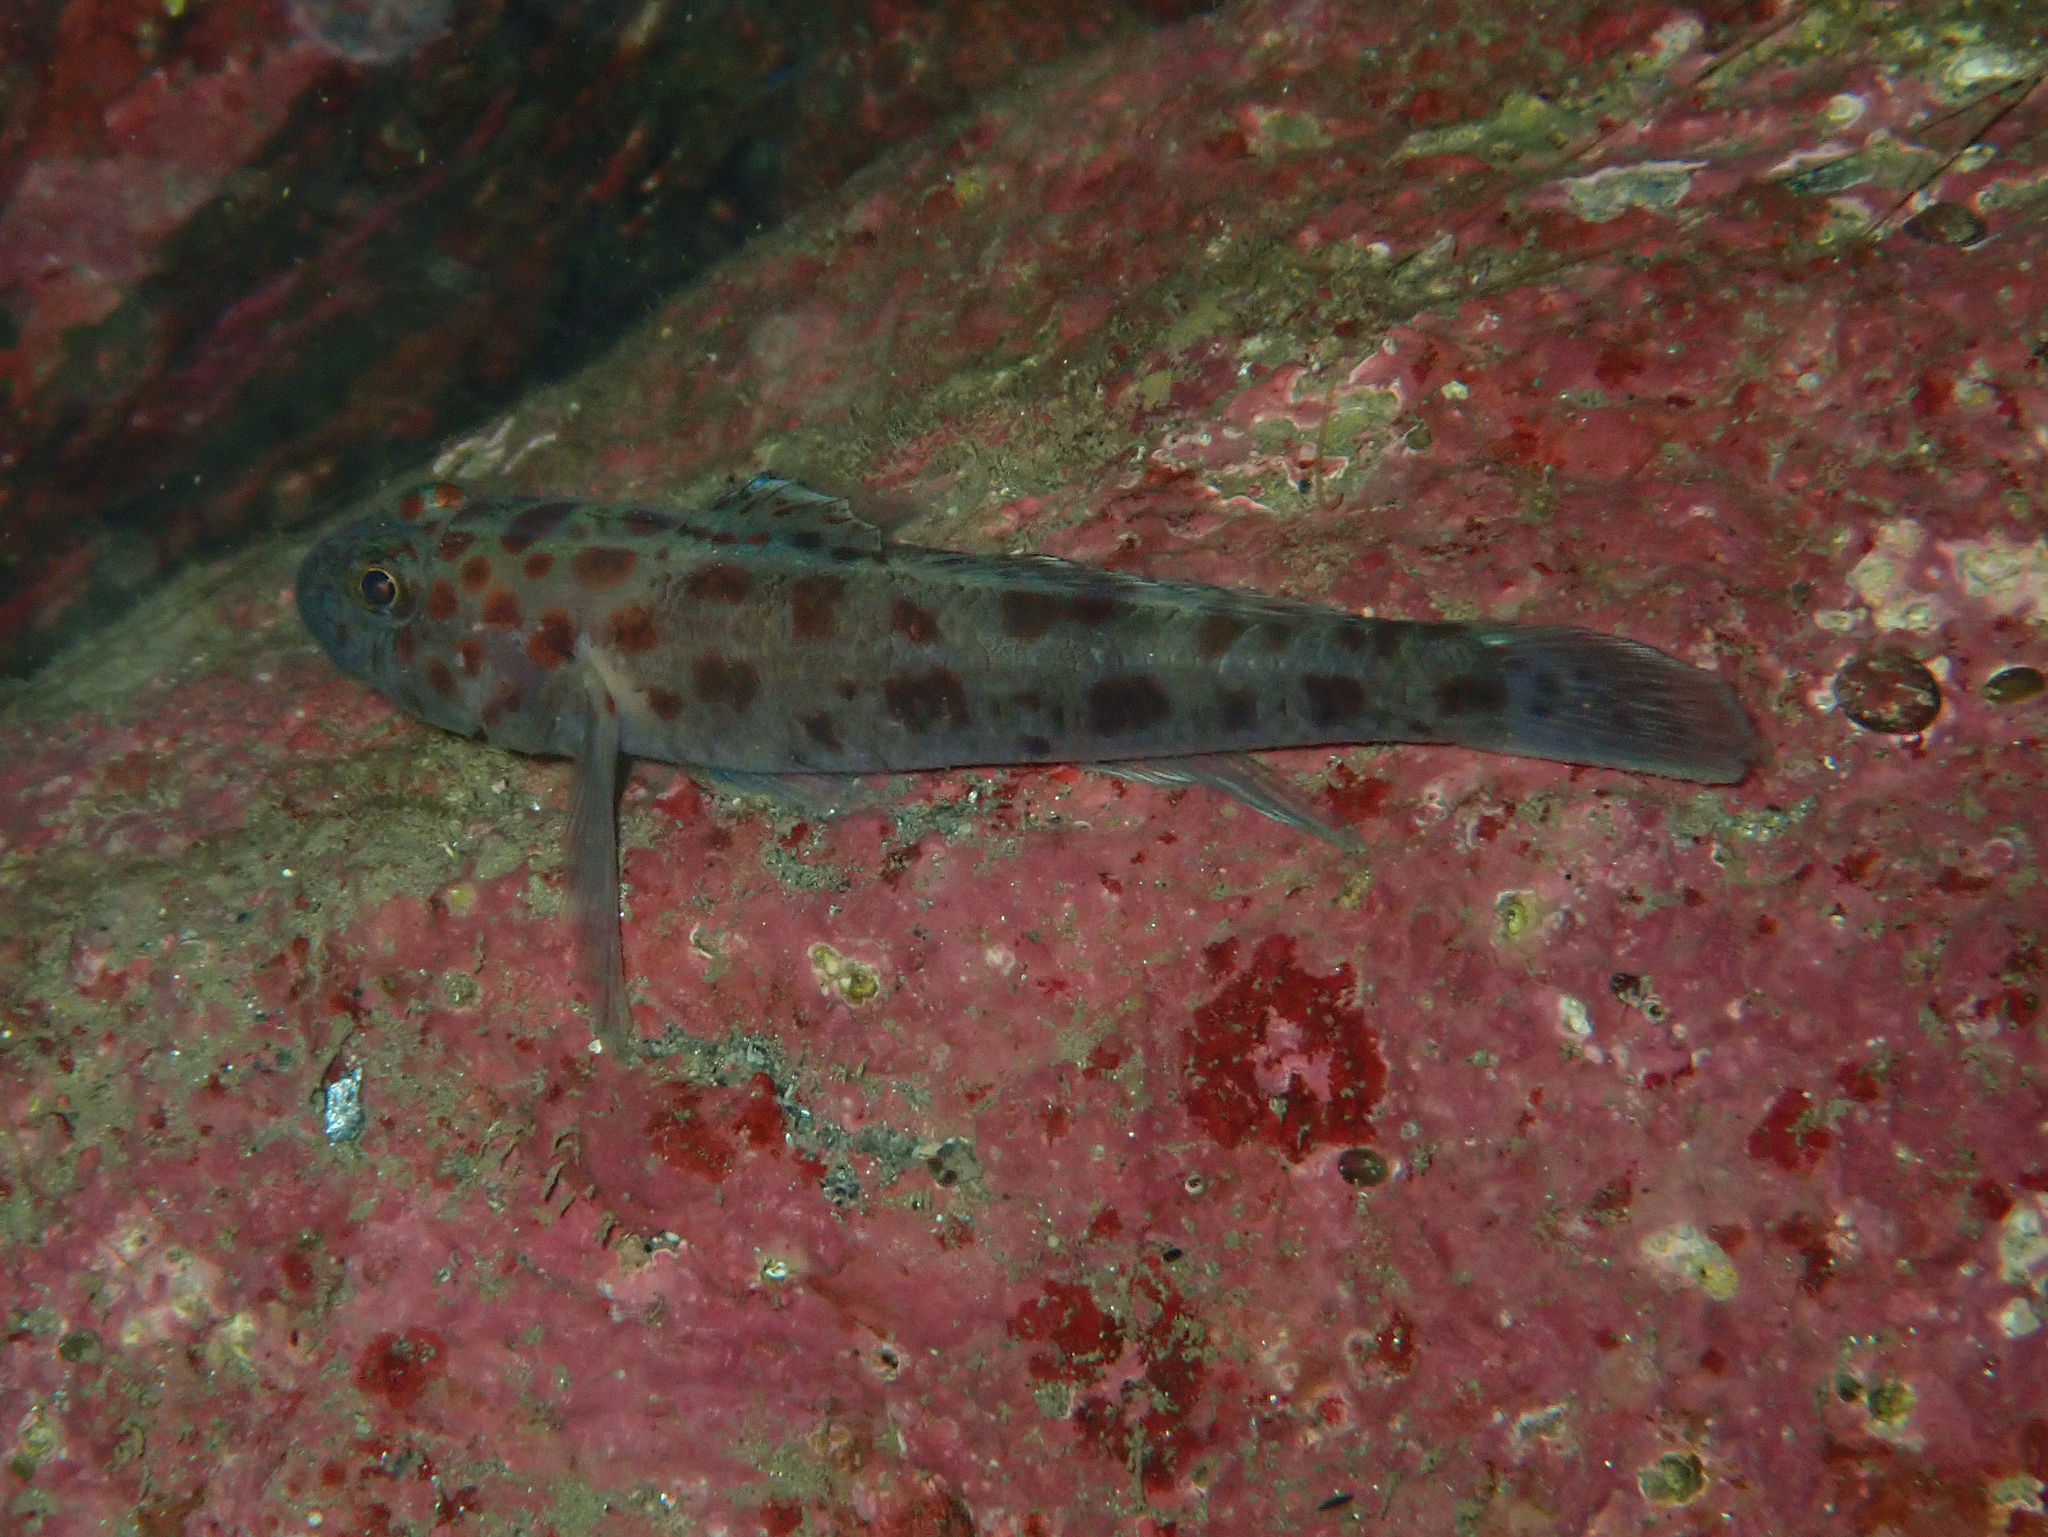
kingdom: Animalia
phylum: Chordata
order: Perciformes
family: Gobiidae
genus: Thorogobius
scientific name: Thorogobius ephippiatus
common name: Leopard-spotted goby
